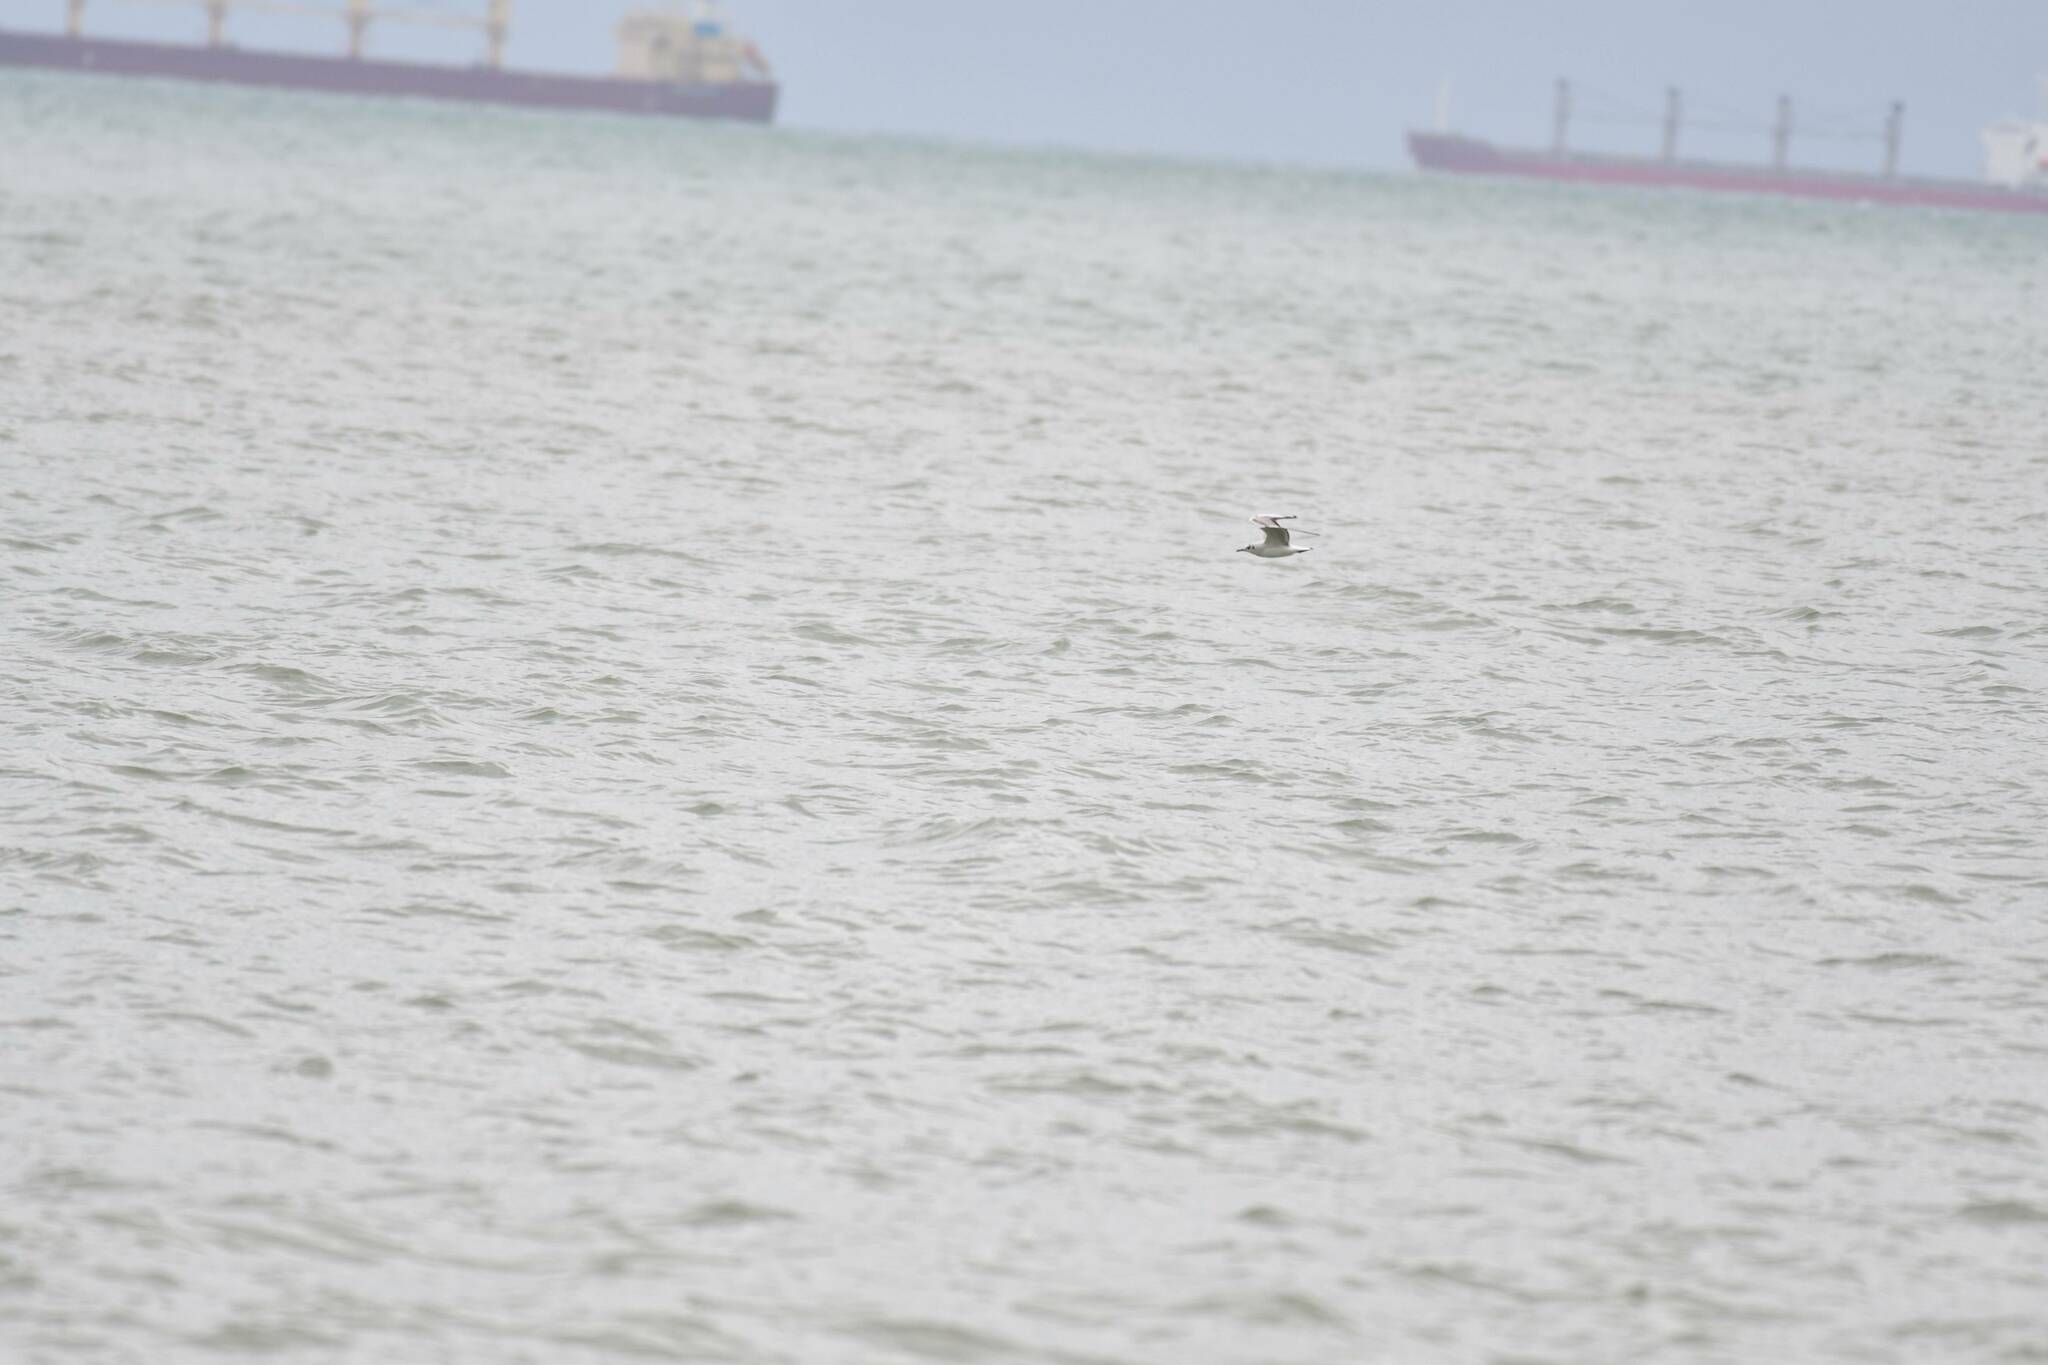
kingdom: Animalia
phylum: Chordata
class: Aves
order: Charadriiformes
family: Laridae
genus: Chroicocephalus
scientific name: Chroicocephalus ridibundus
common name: Black-headed gull
